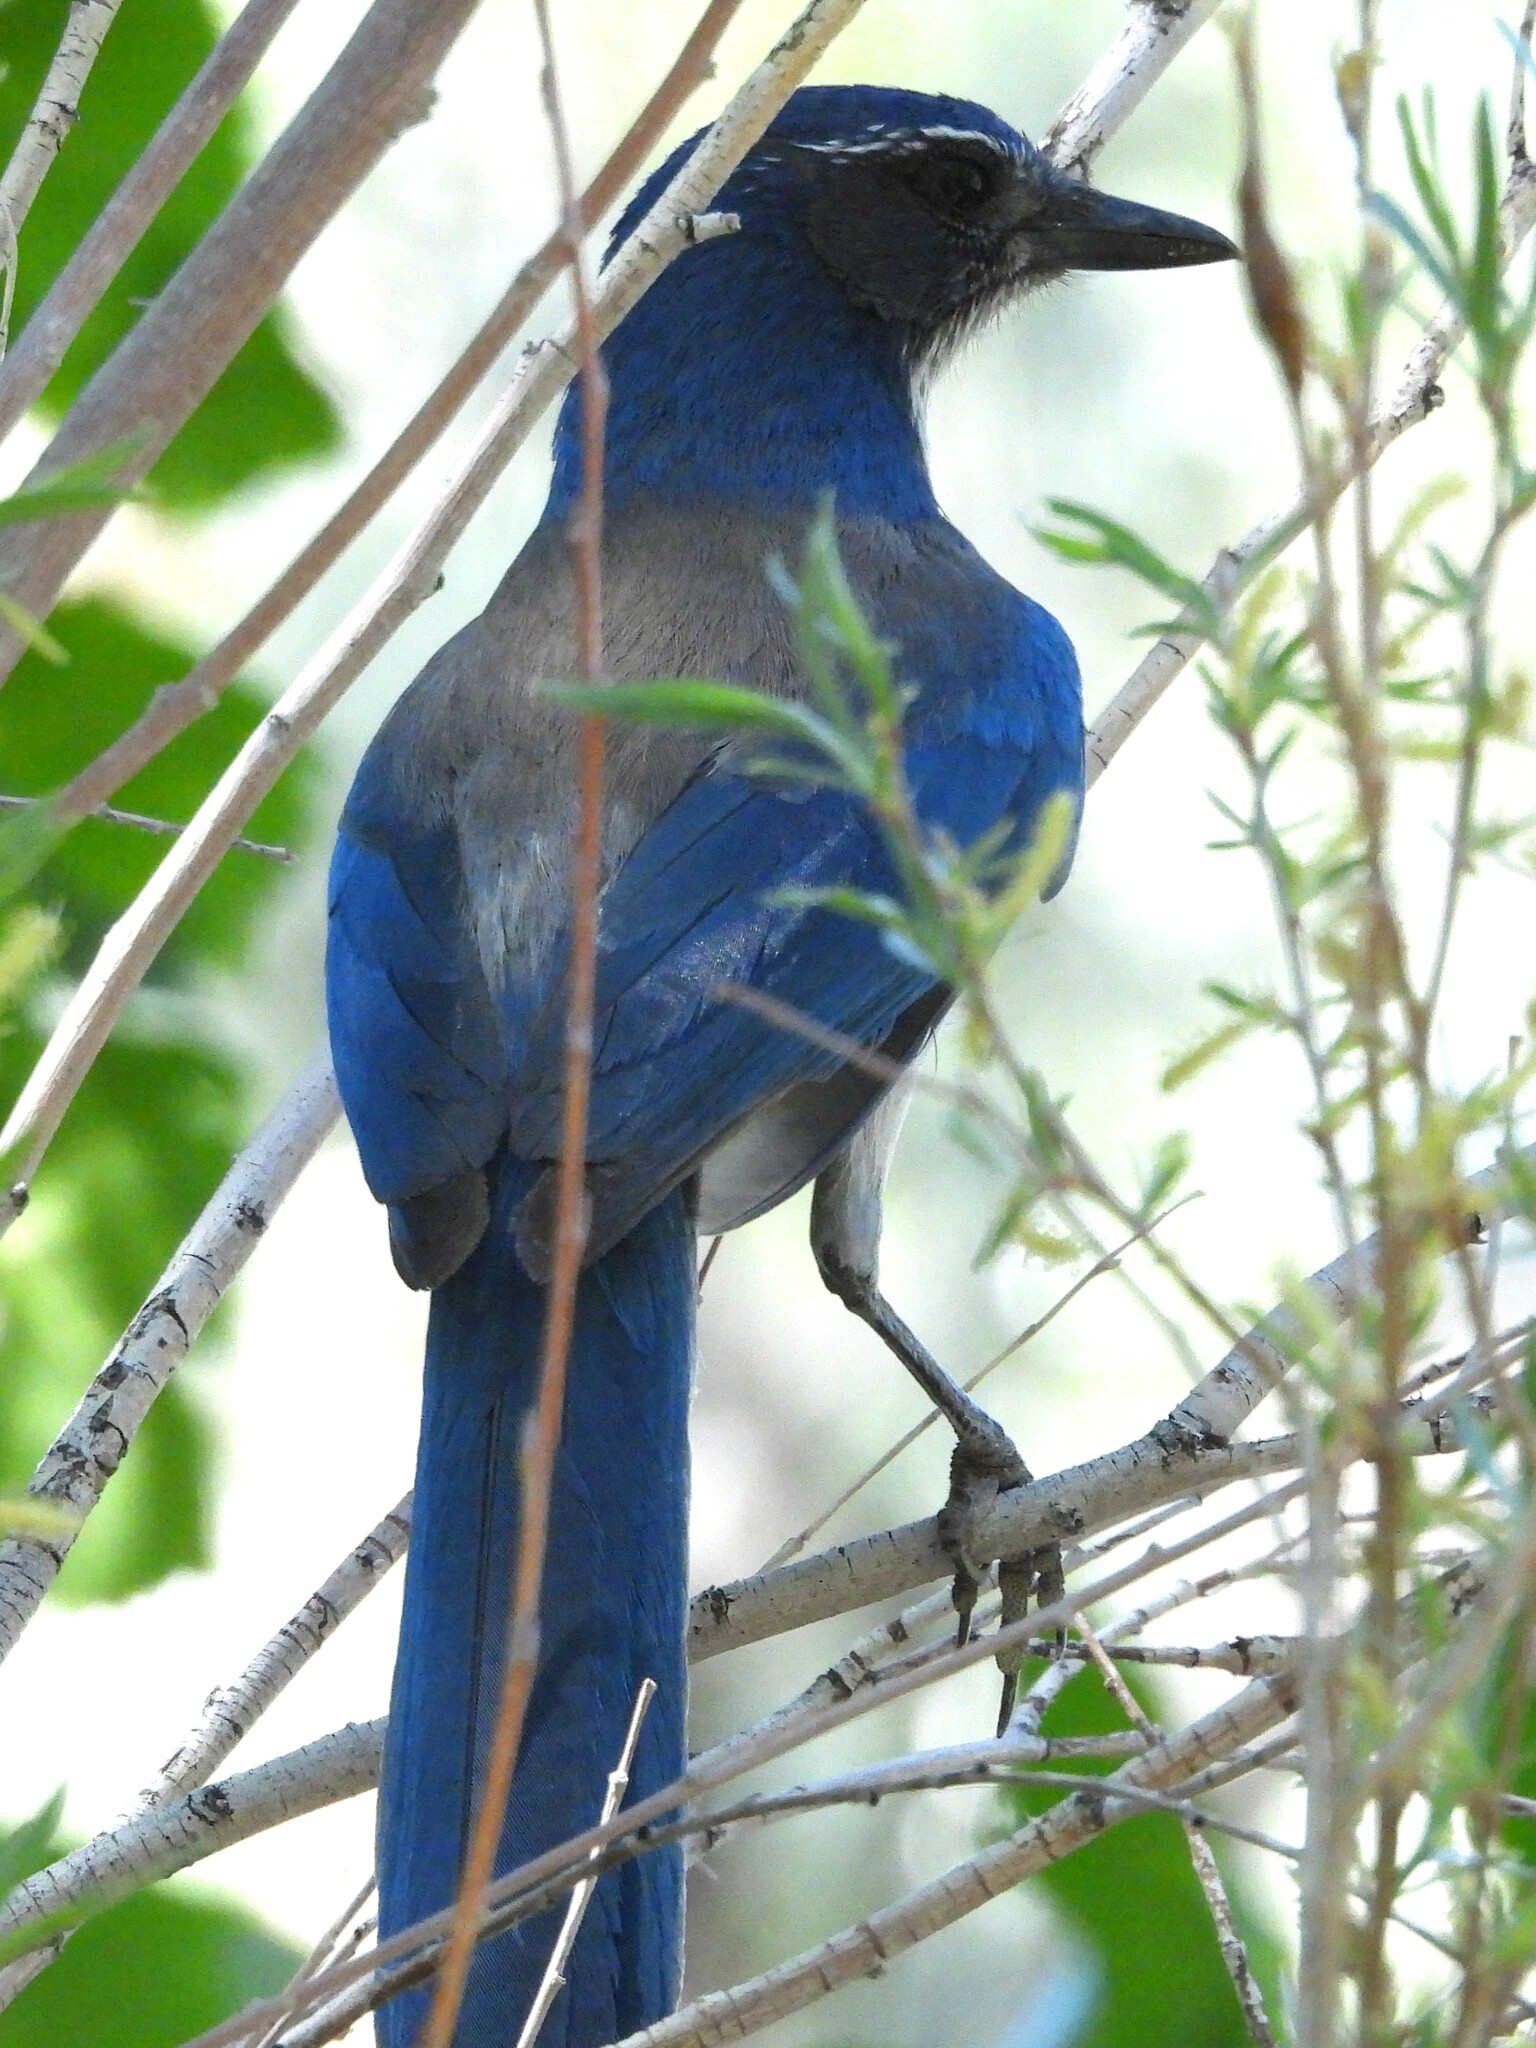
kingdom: Animalia
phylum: Chordata
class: Aves
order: Passeriformes
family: Corvidae
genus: Aphelocoma
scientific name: Aphelocoma californica
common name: California scrub-jay
